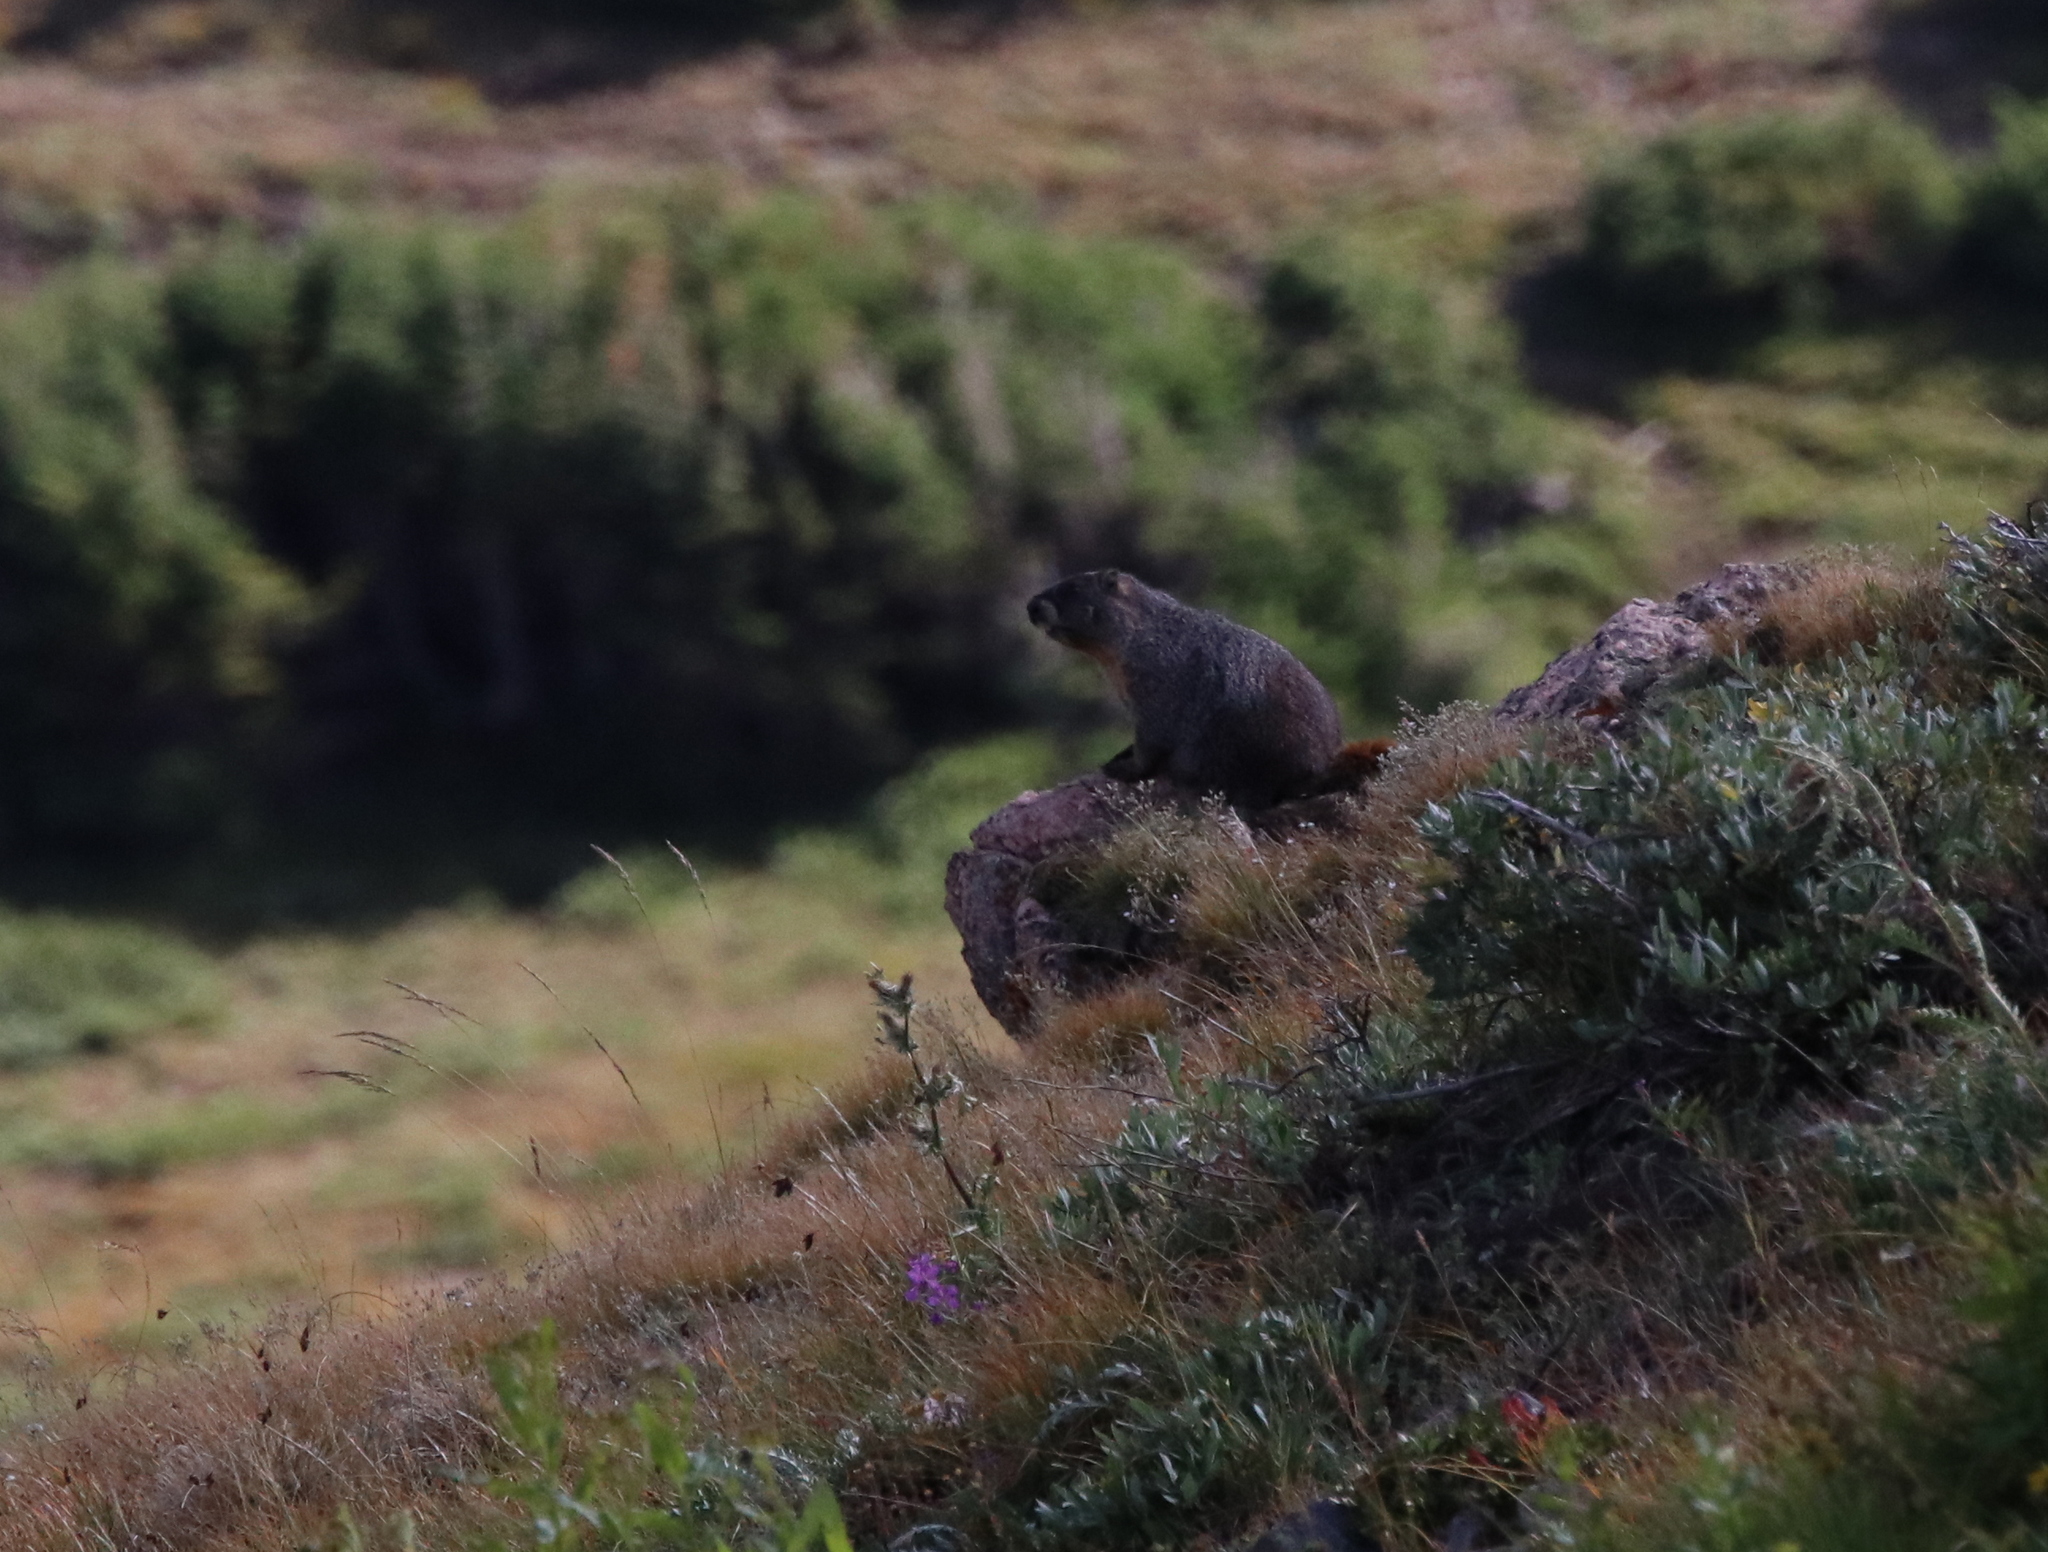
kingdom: Animalia
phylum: Chordata
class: Mammalia
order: Rodentia
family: Sciuridae
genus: Marmota
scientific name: Marmota flaviventris
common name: Yellow-bellied marmot
